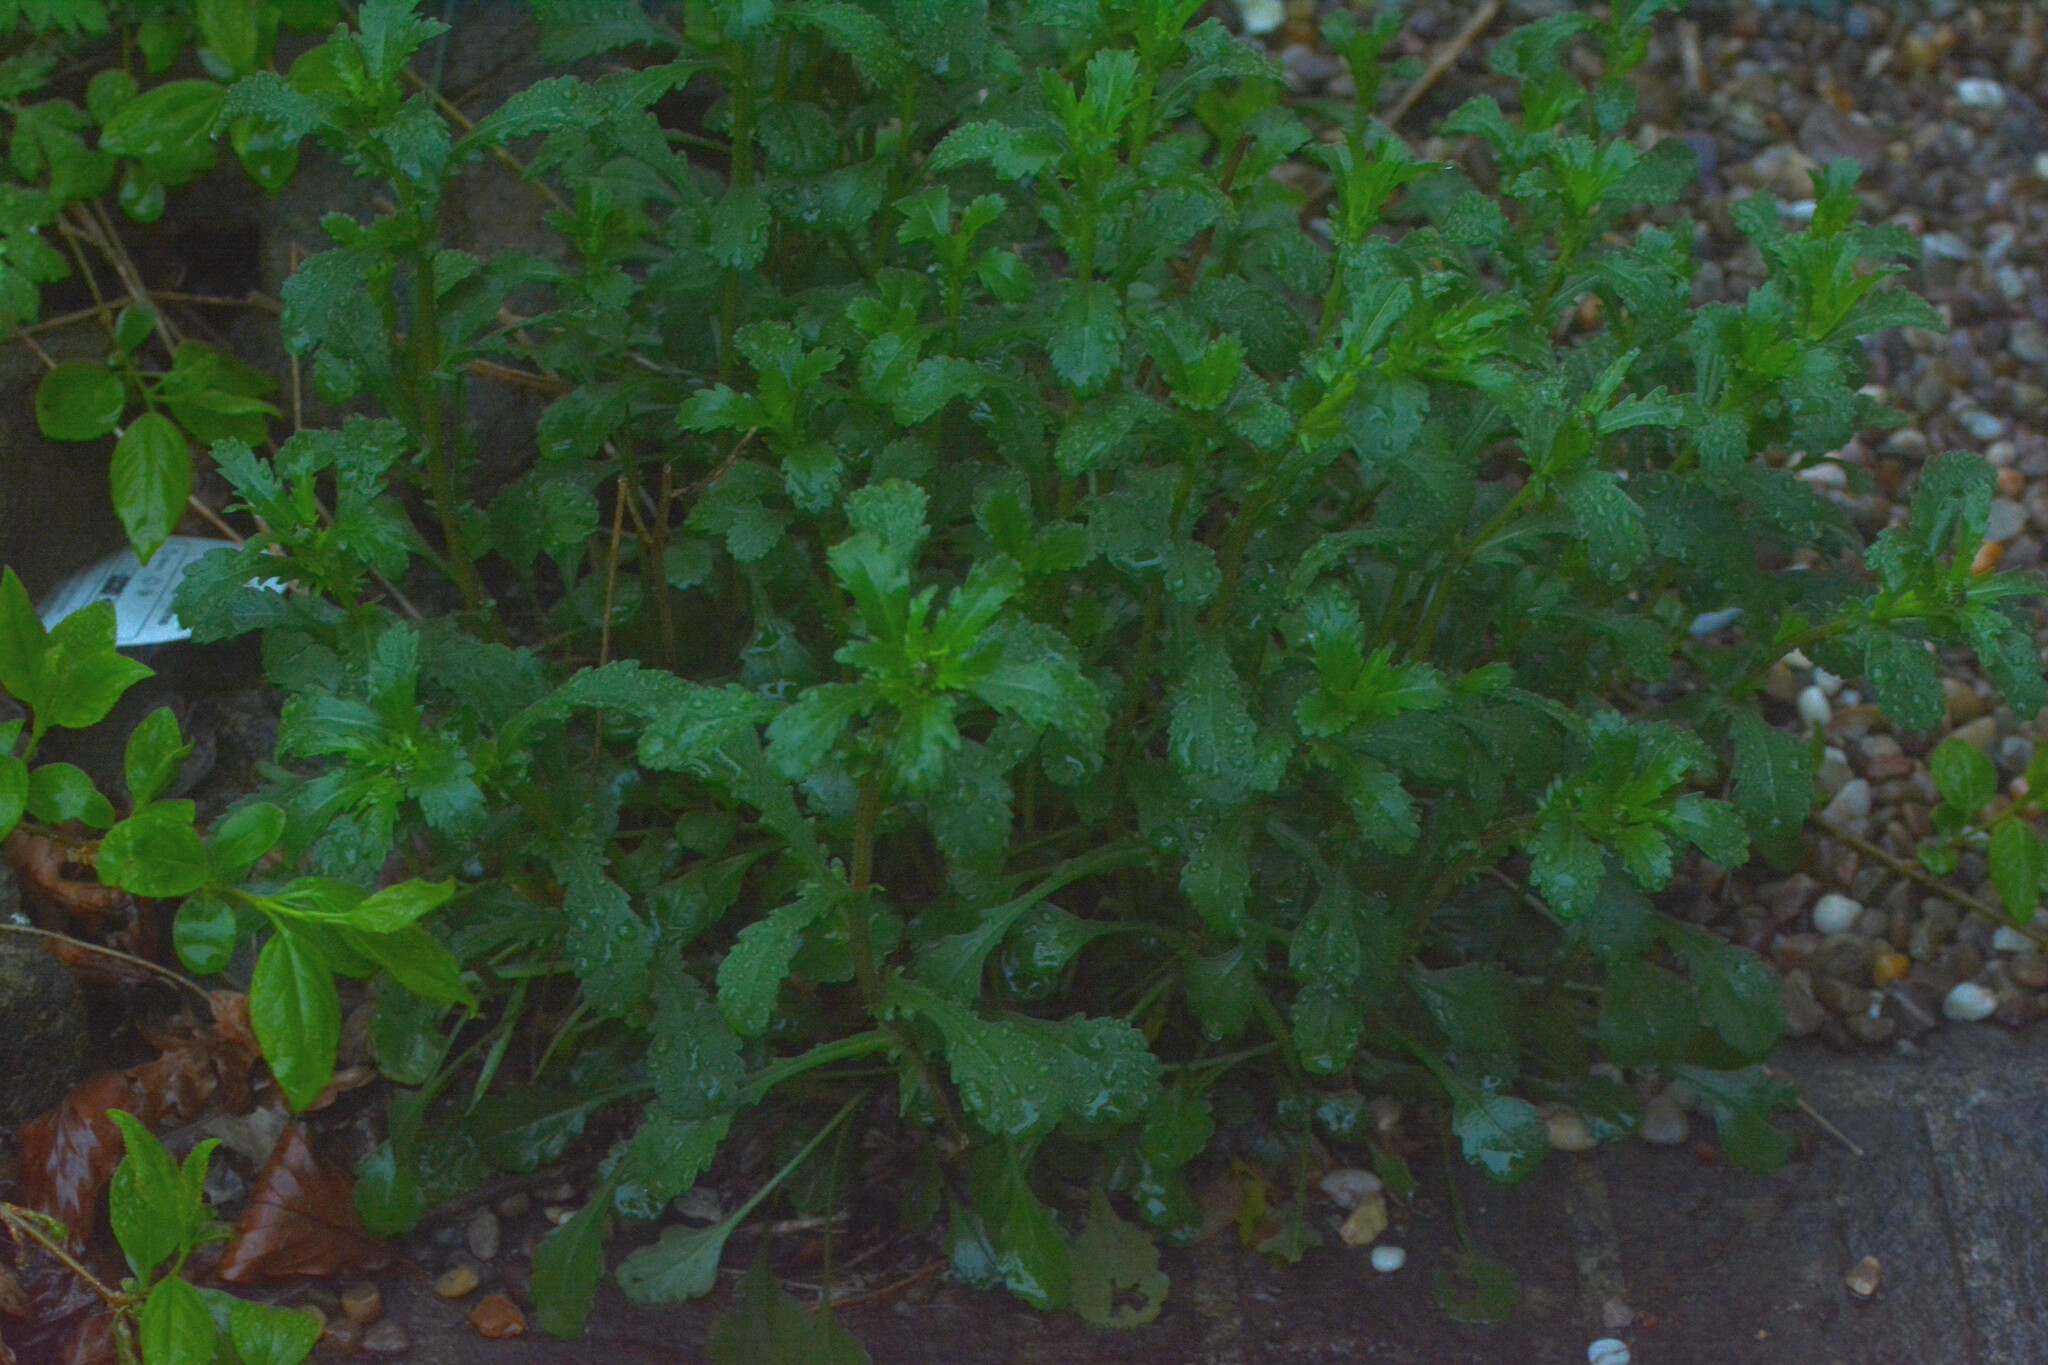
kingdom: Plantae
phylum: Tracheophyta
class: Magnoliopsida
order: Asterales
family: Asteraceae
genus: Leucanthemum
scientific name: Leucanthemum vulgare
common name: Oxeye daisy
